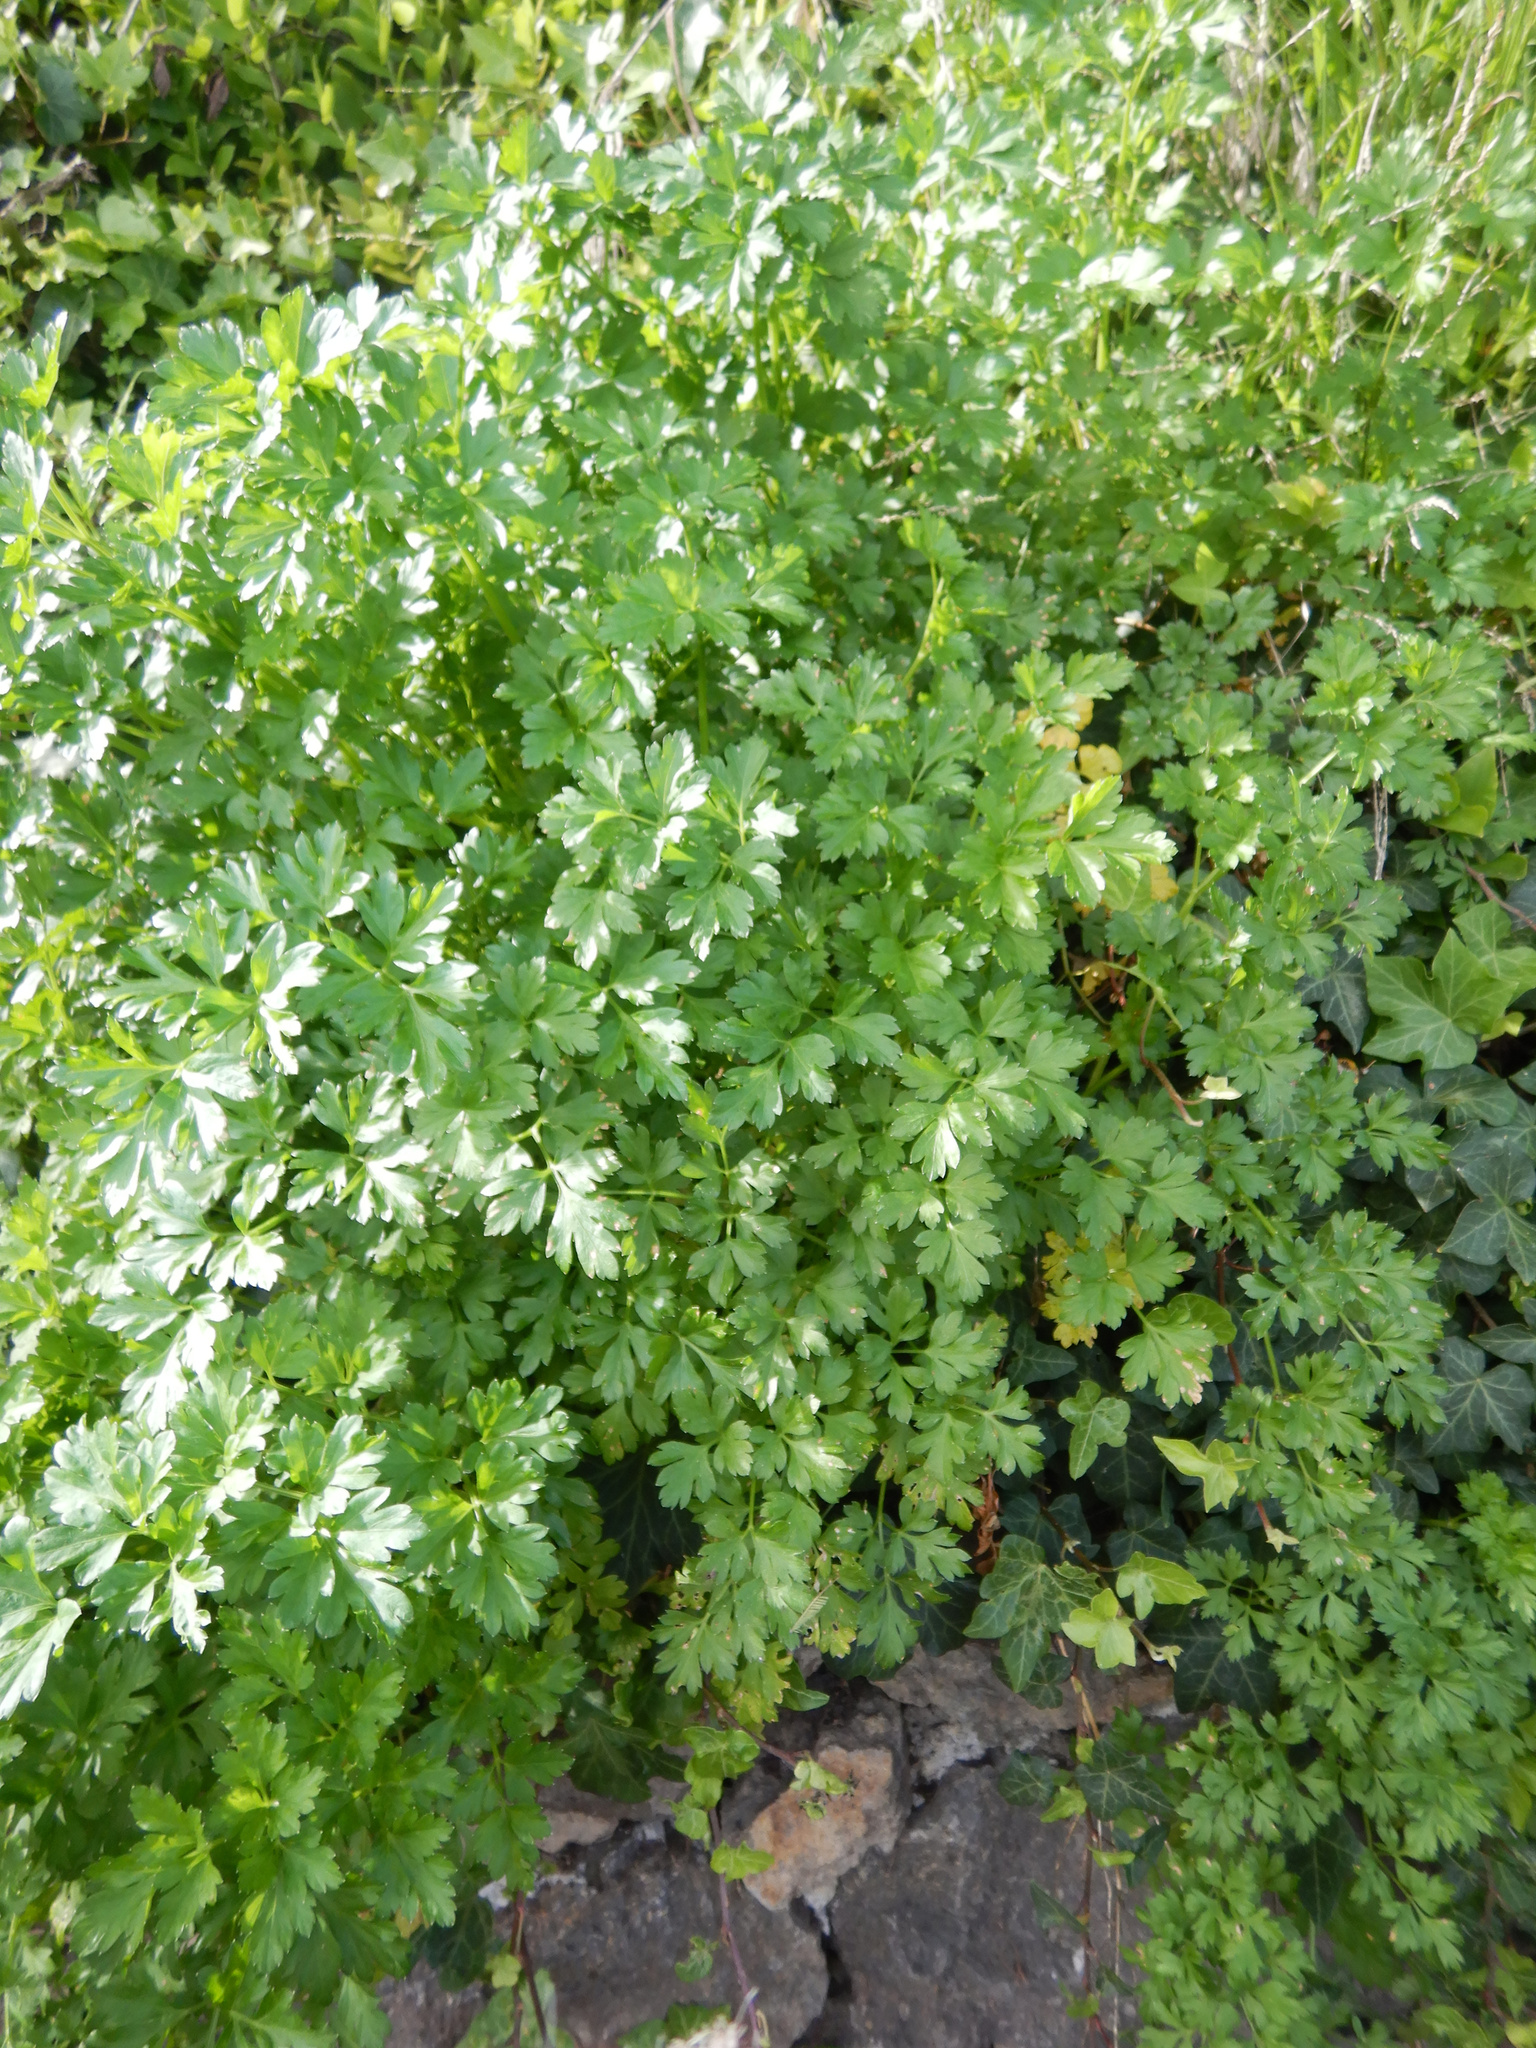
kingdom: Plantae
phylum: Tracheophyta
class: Magnoliopsida
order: Apiales
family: Apiaceae
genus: Petroselinum
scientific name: Petroselinum crispum
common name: Parsley
